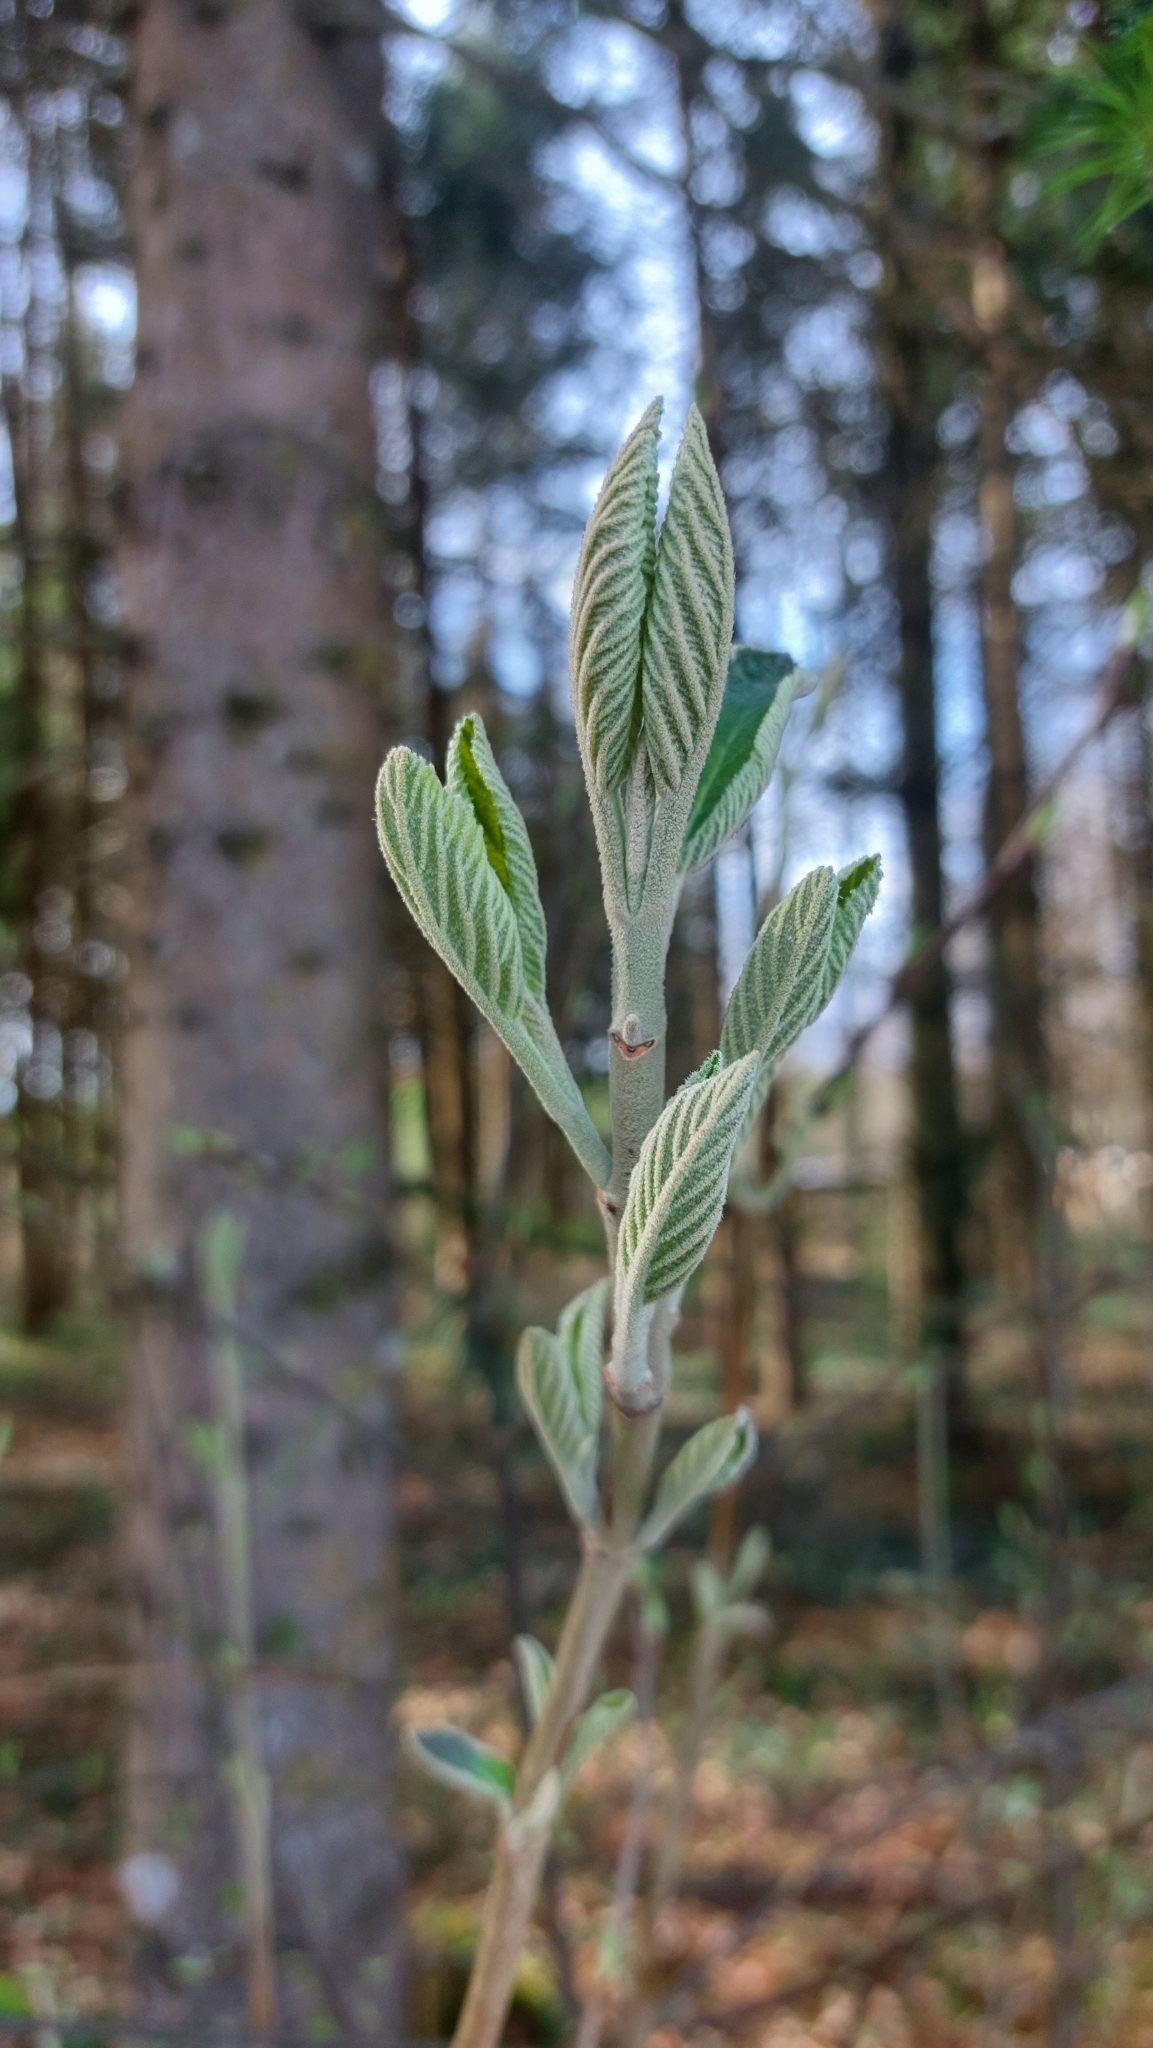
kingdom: Plantae
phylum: Tracheophyta
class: Magnoliopsida
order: Dipsacales
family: Viburnaceae
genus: Viburnum
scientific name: Viburnum lantana
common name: Wayfaring tree
